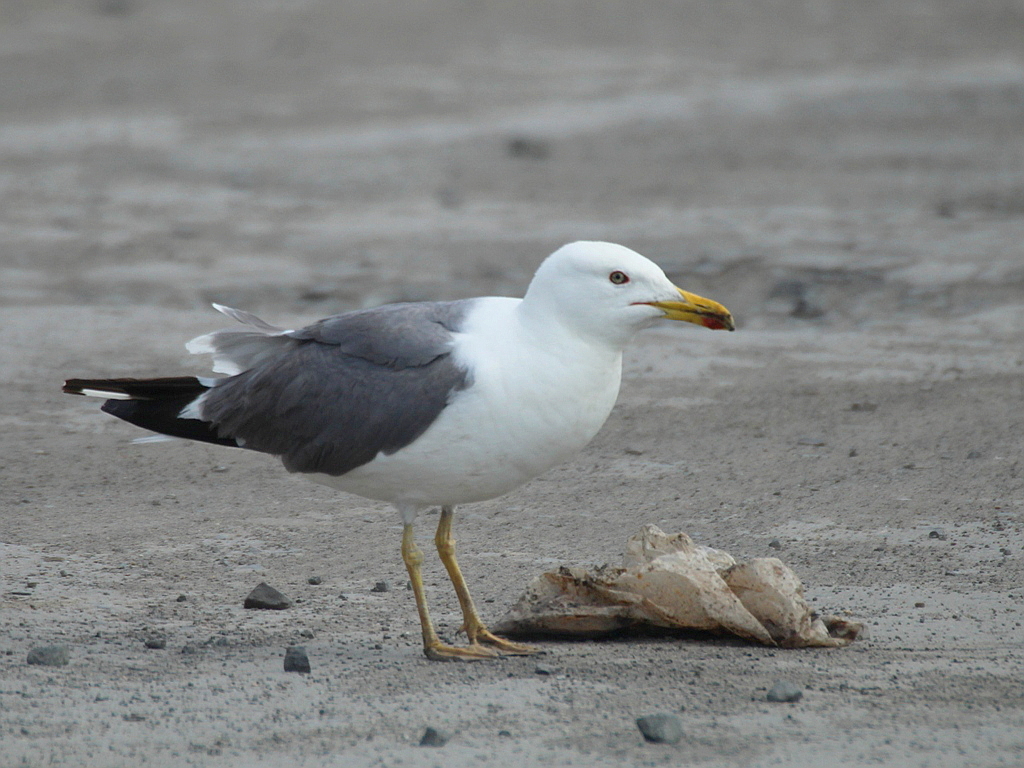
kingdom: Animalia
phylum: Chordata
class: Aves
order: Charadriiformes
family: Laridae
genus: Larus
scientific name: Larus fuscus
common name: Lesser black-backed gull
